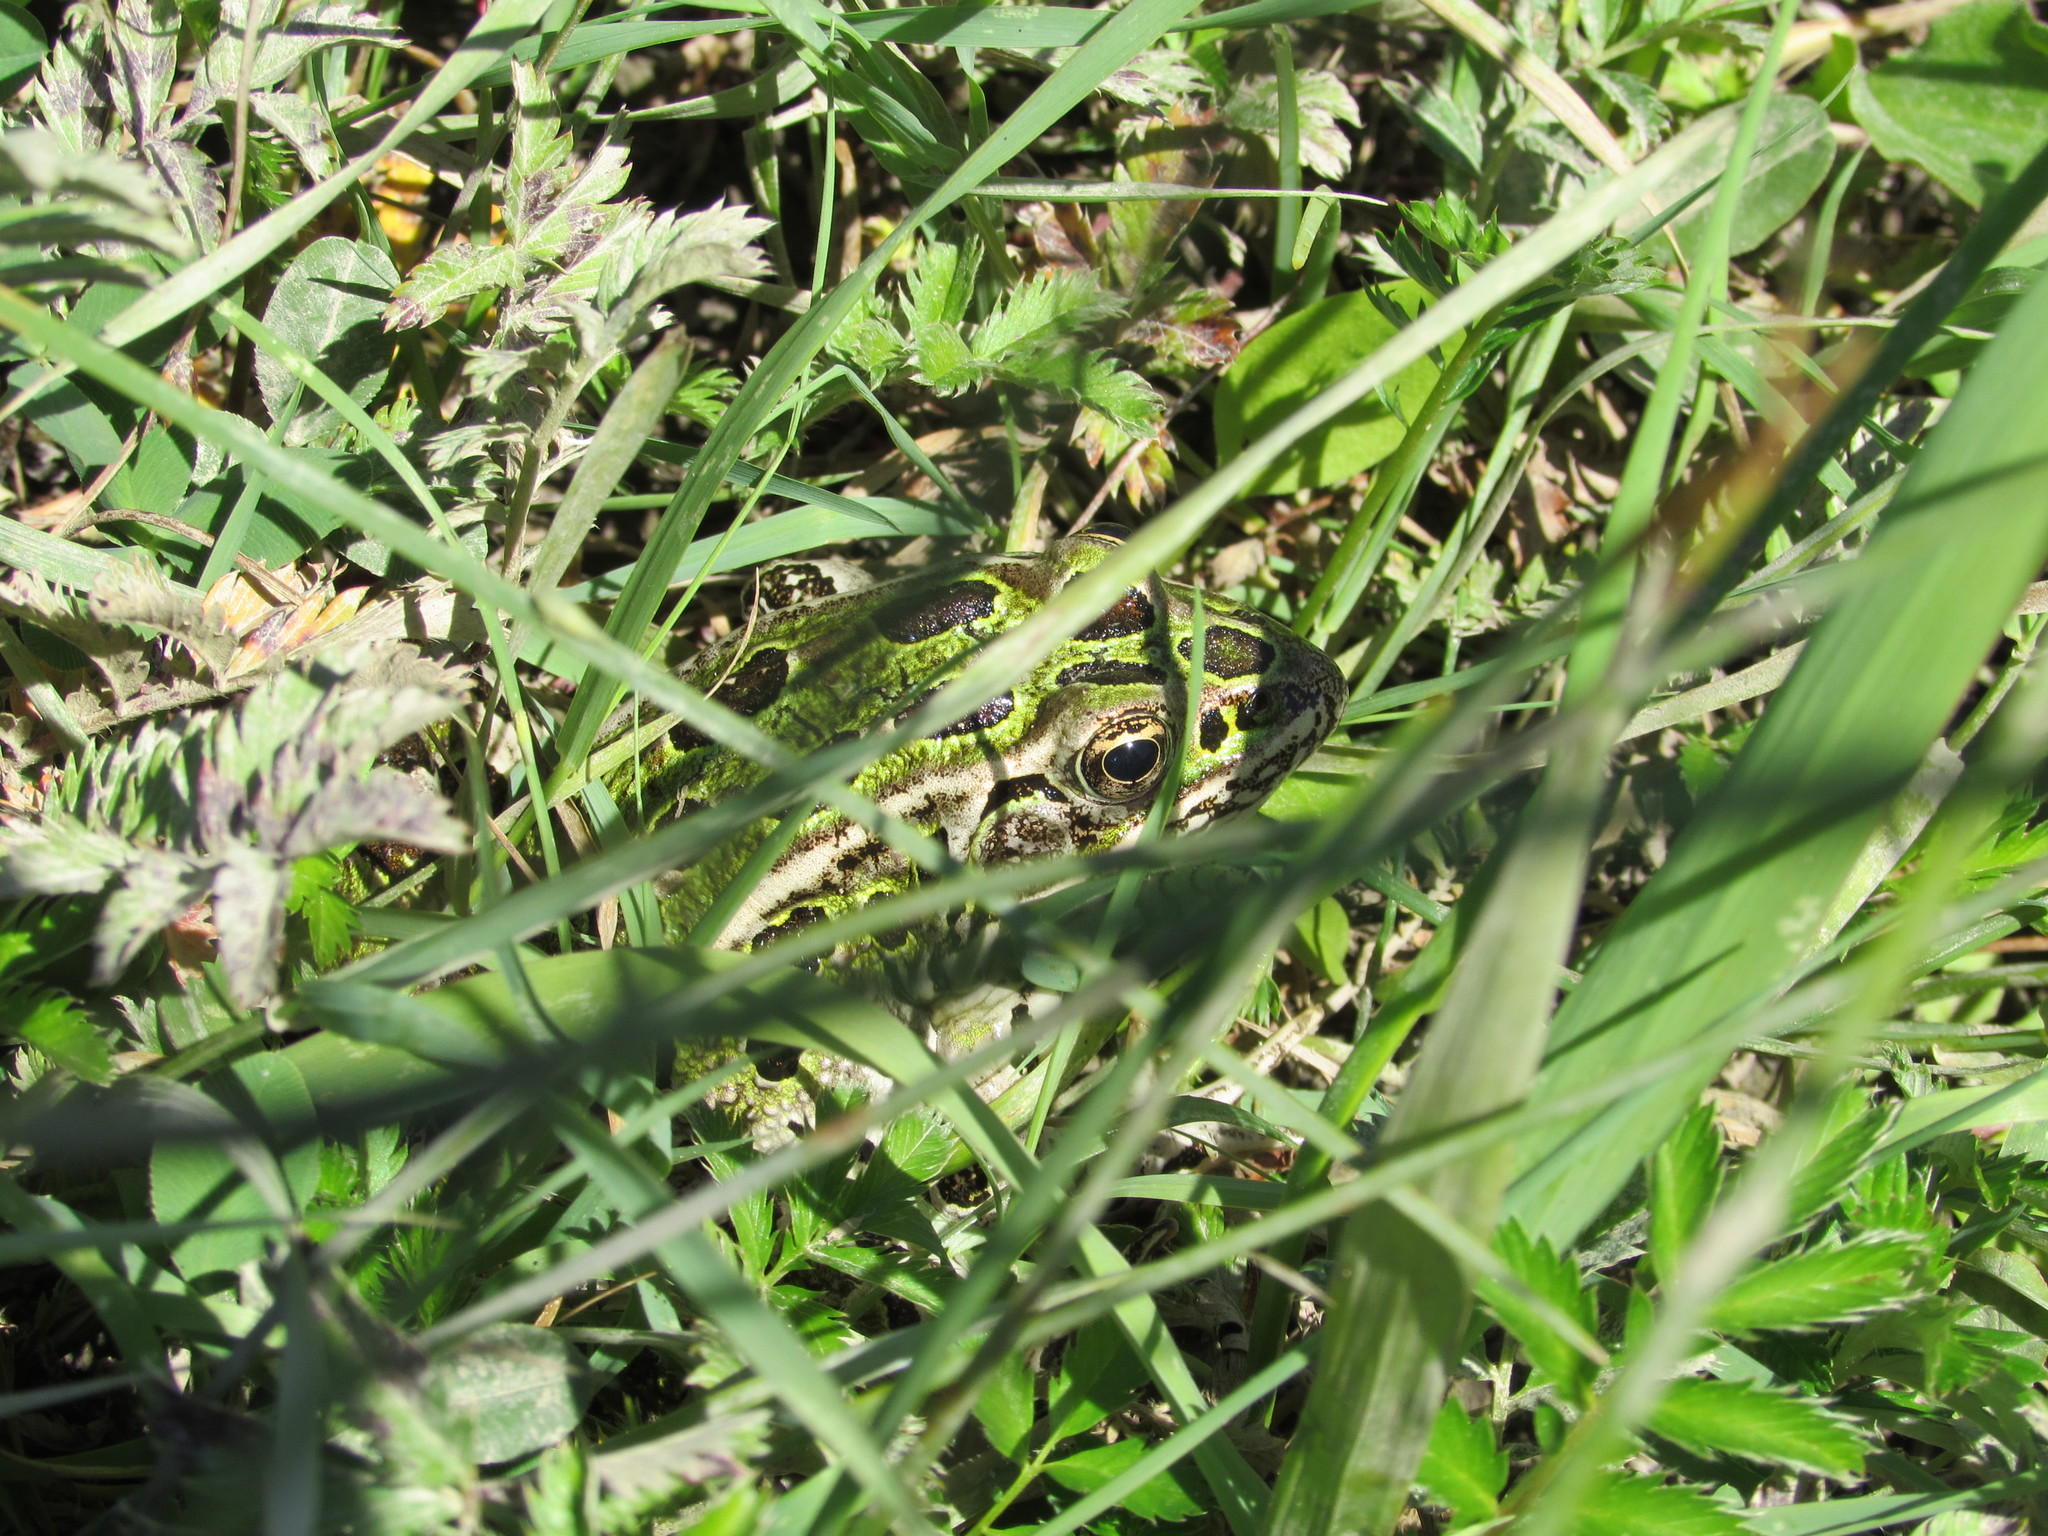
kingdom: Animalia
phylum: Chordata
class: Amphibia
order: Anura
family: Ranidae
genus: Lithobates
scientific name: Lithobates pipiens
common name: Northern leopard frog
